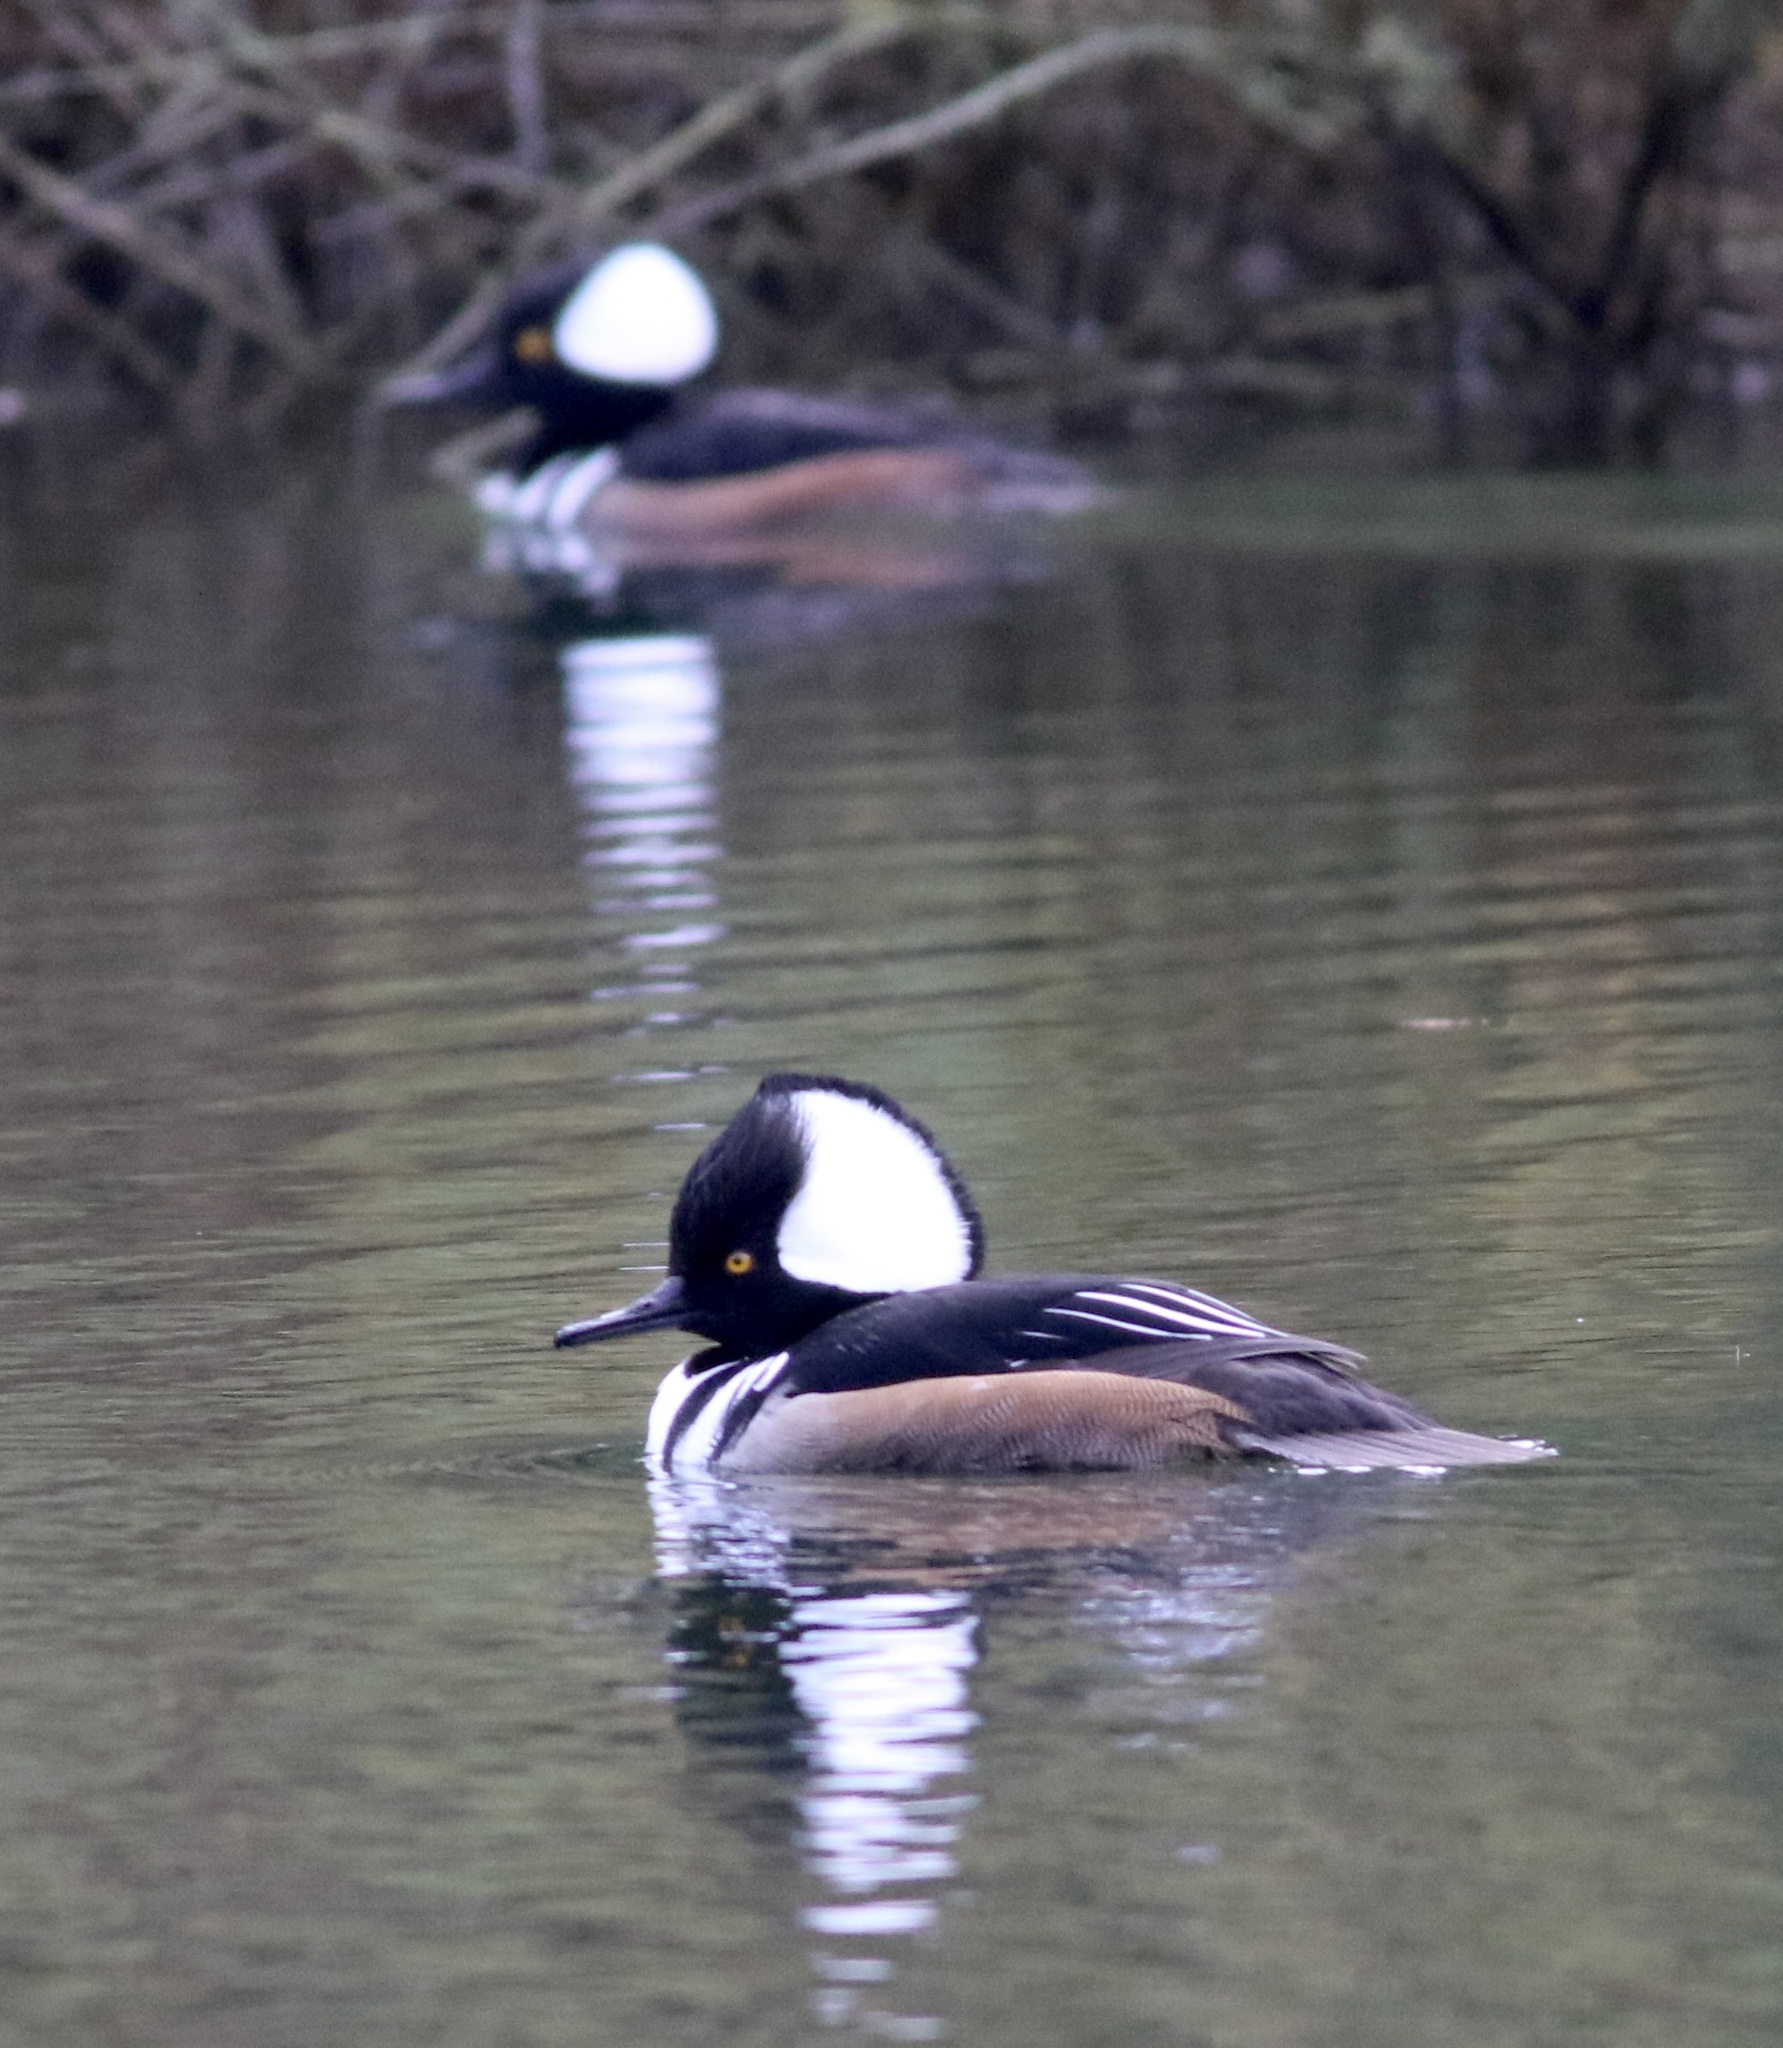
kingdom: Animalia
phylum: Chordata
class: Aves
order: Anseriformes
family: Anatidae
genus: Lophodytes
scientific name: Lophodytes cucullatus
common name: Hooded merganser
